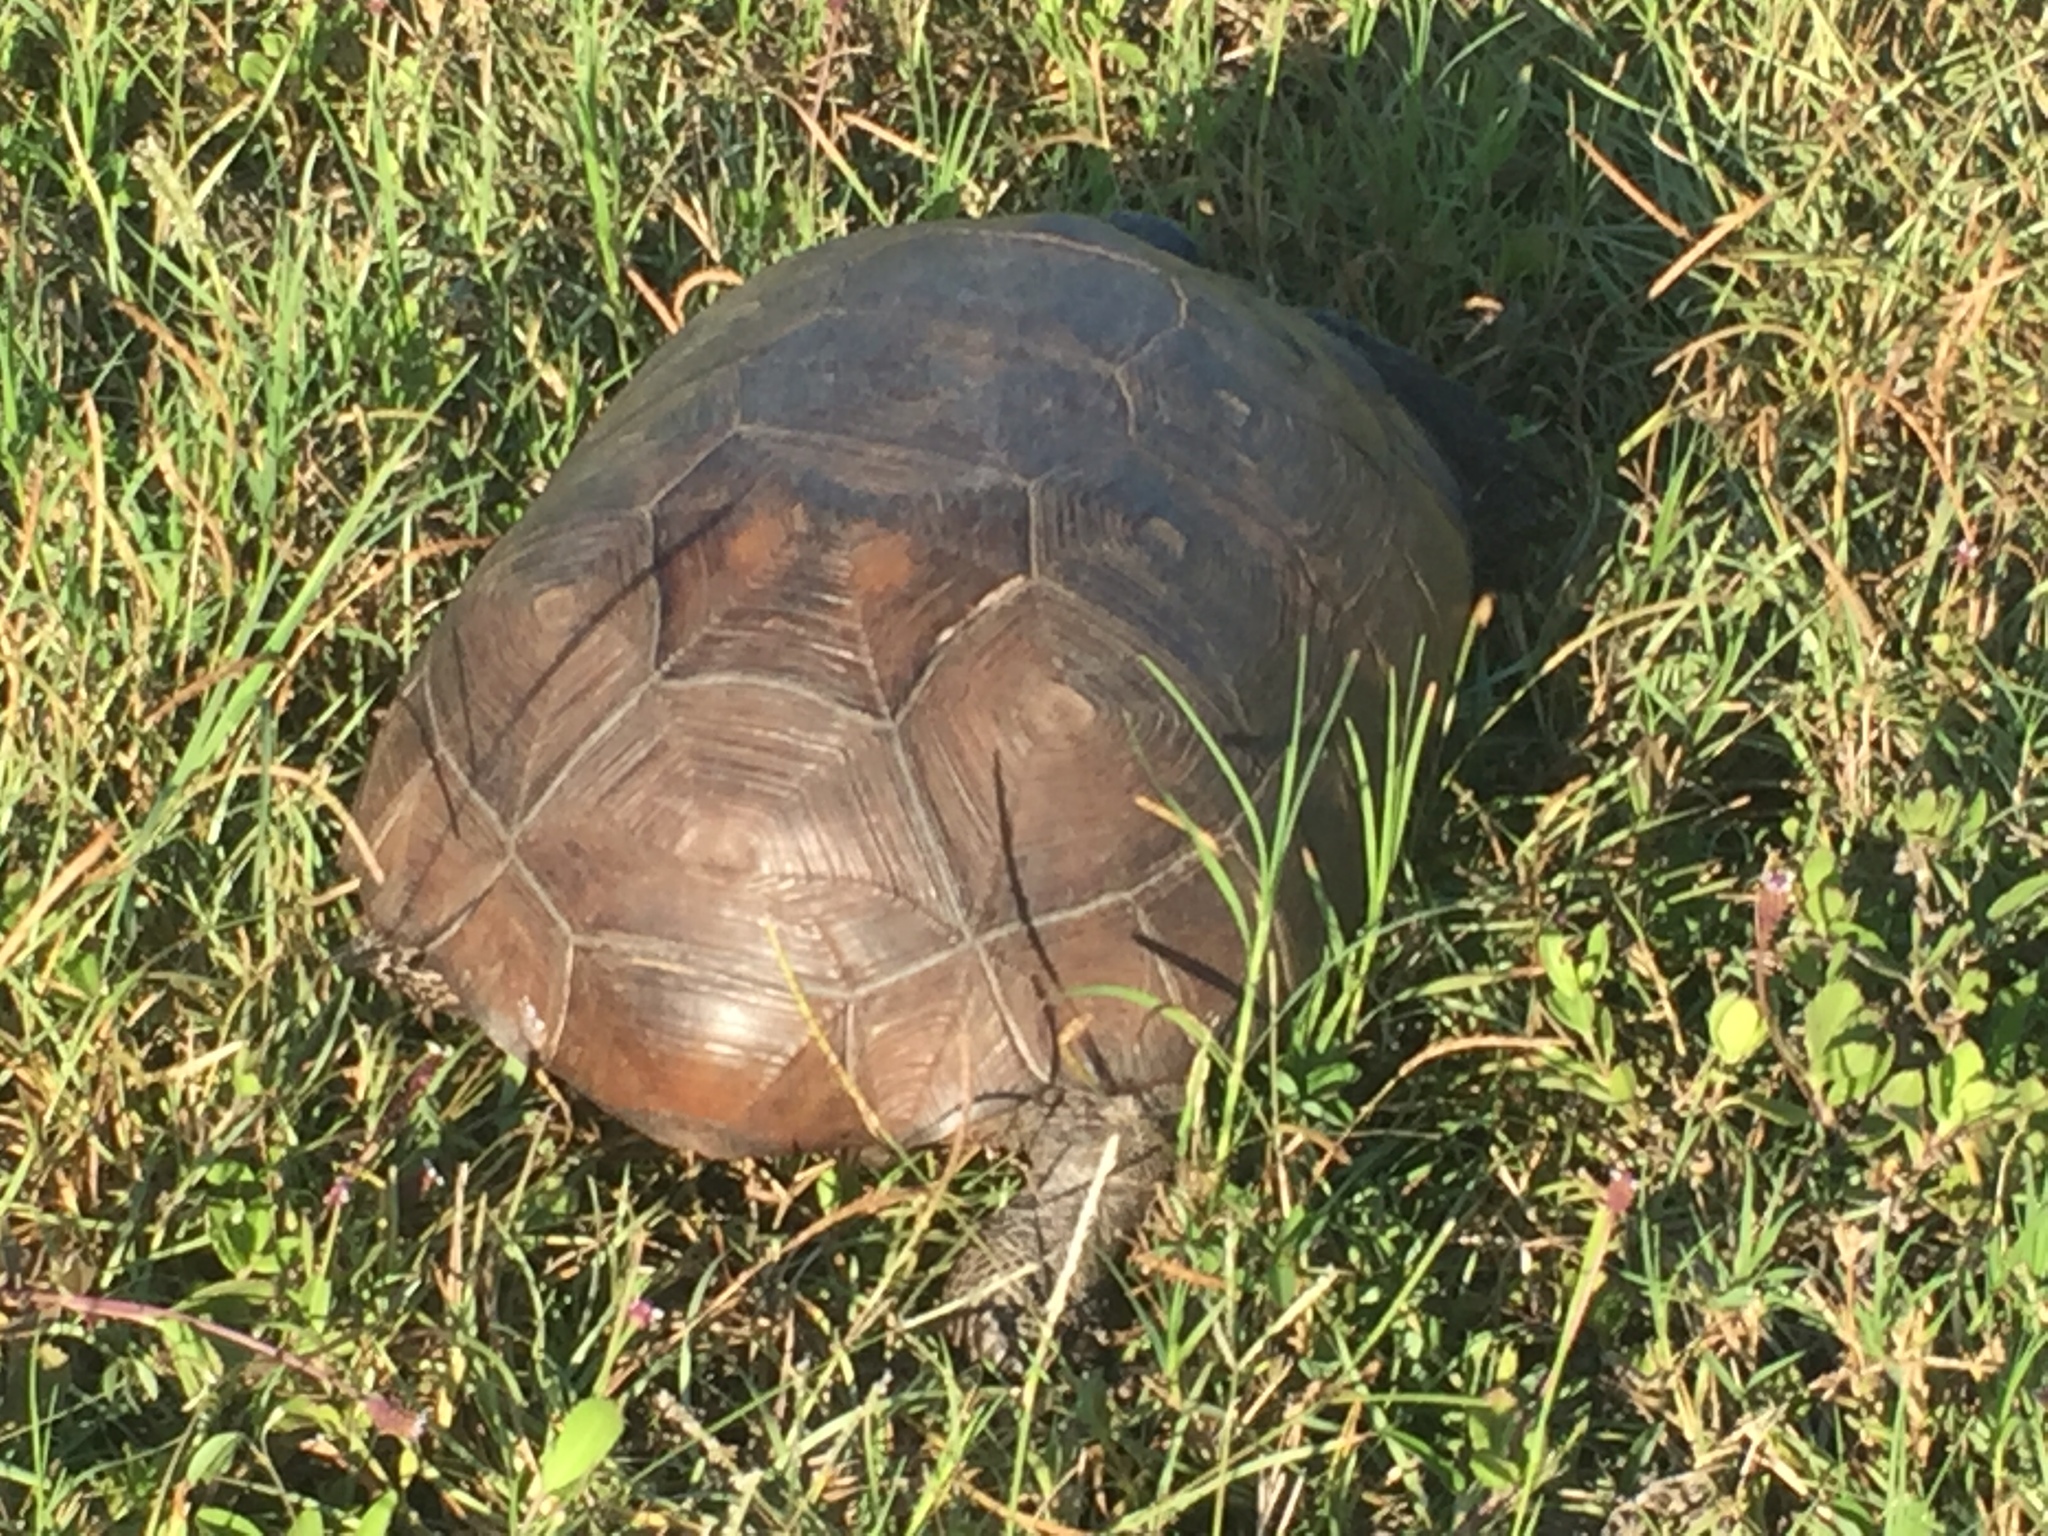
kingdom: Animalia
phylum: Chordata
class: Testudines
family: Testudinidae
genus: Gopherus
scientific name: Gopherus polyphemus
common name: Florida gopher tortoise
